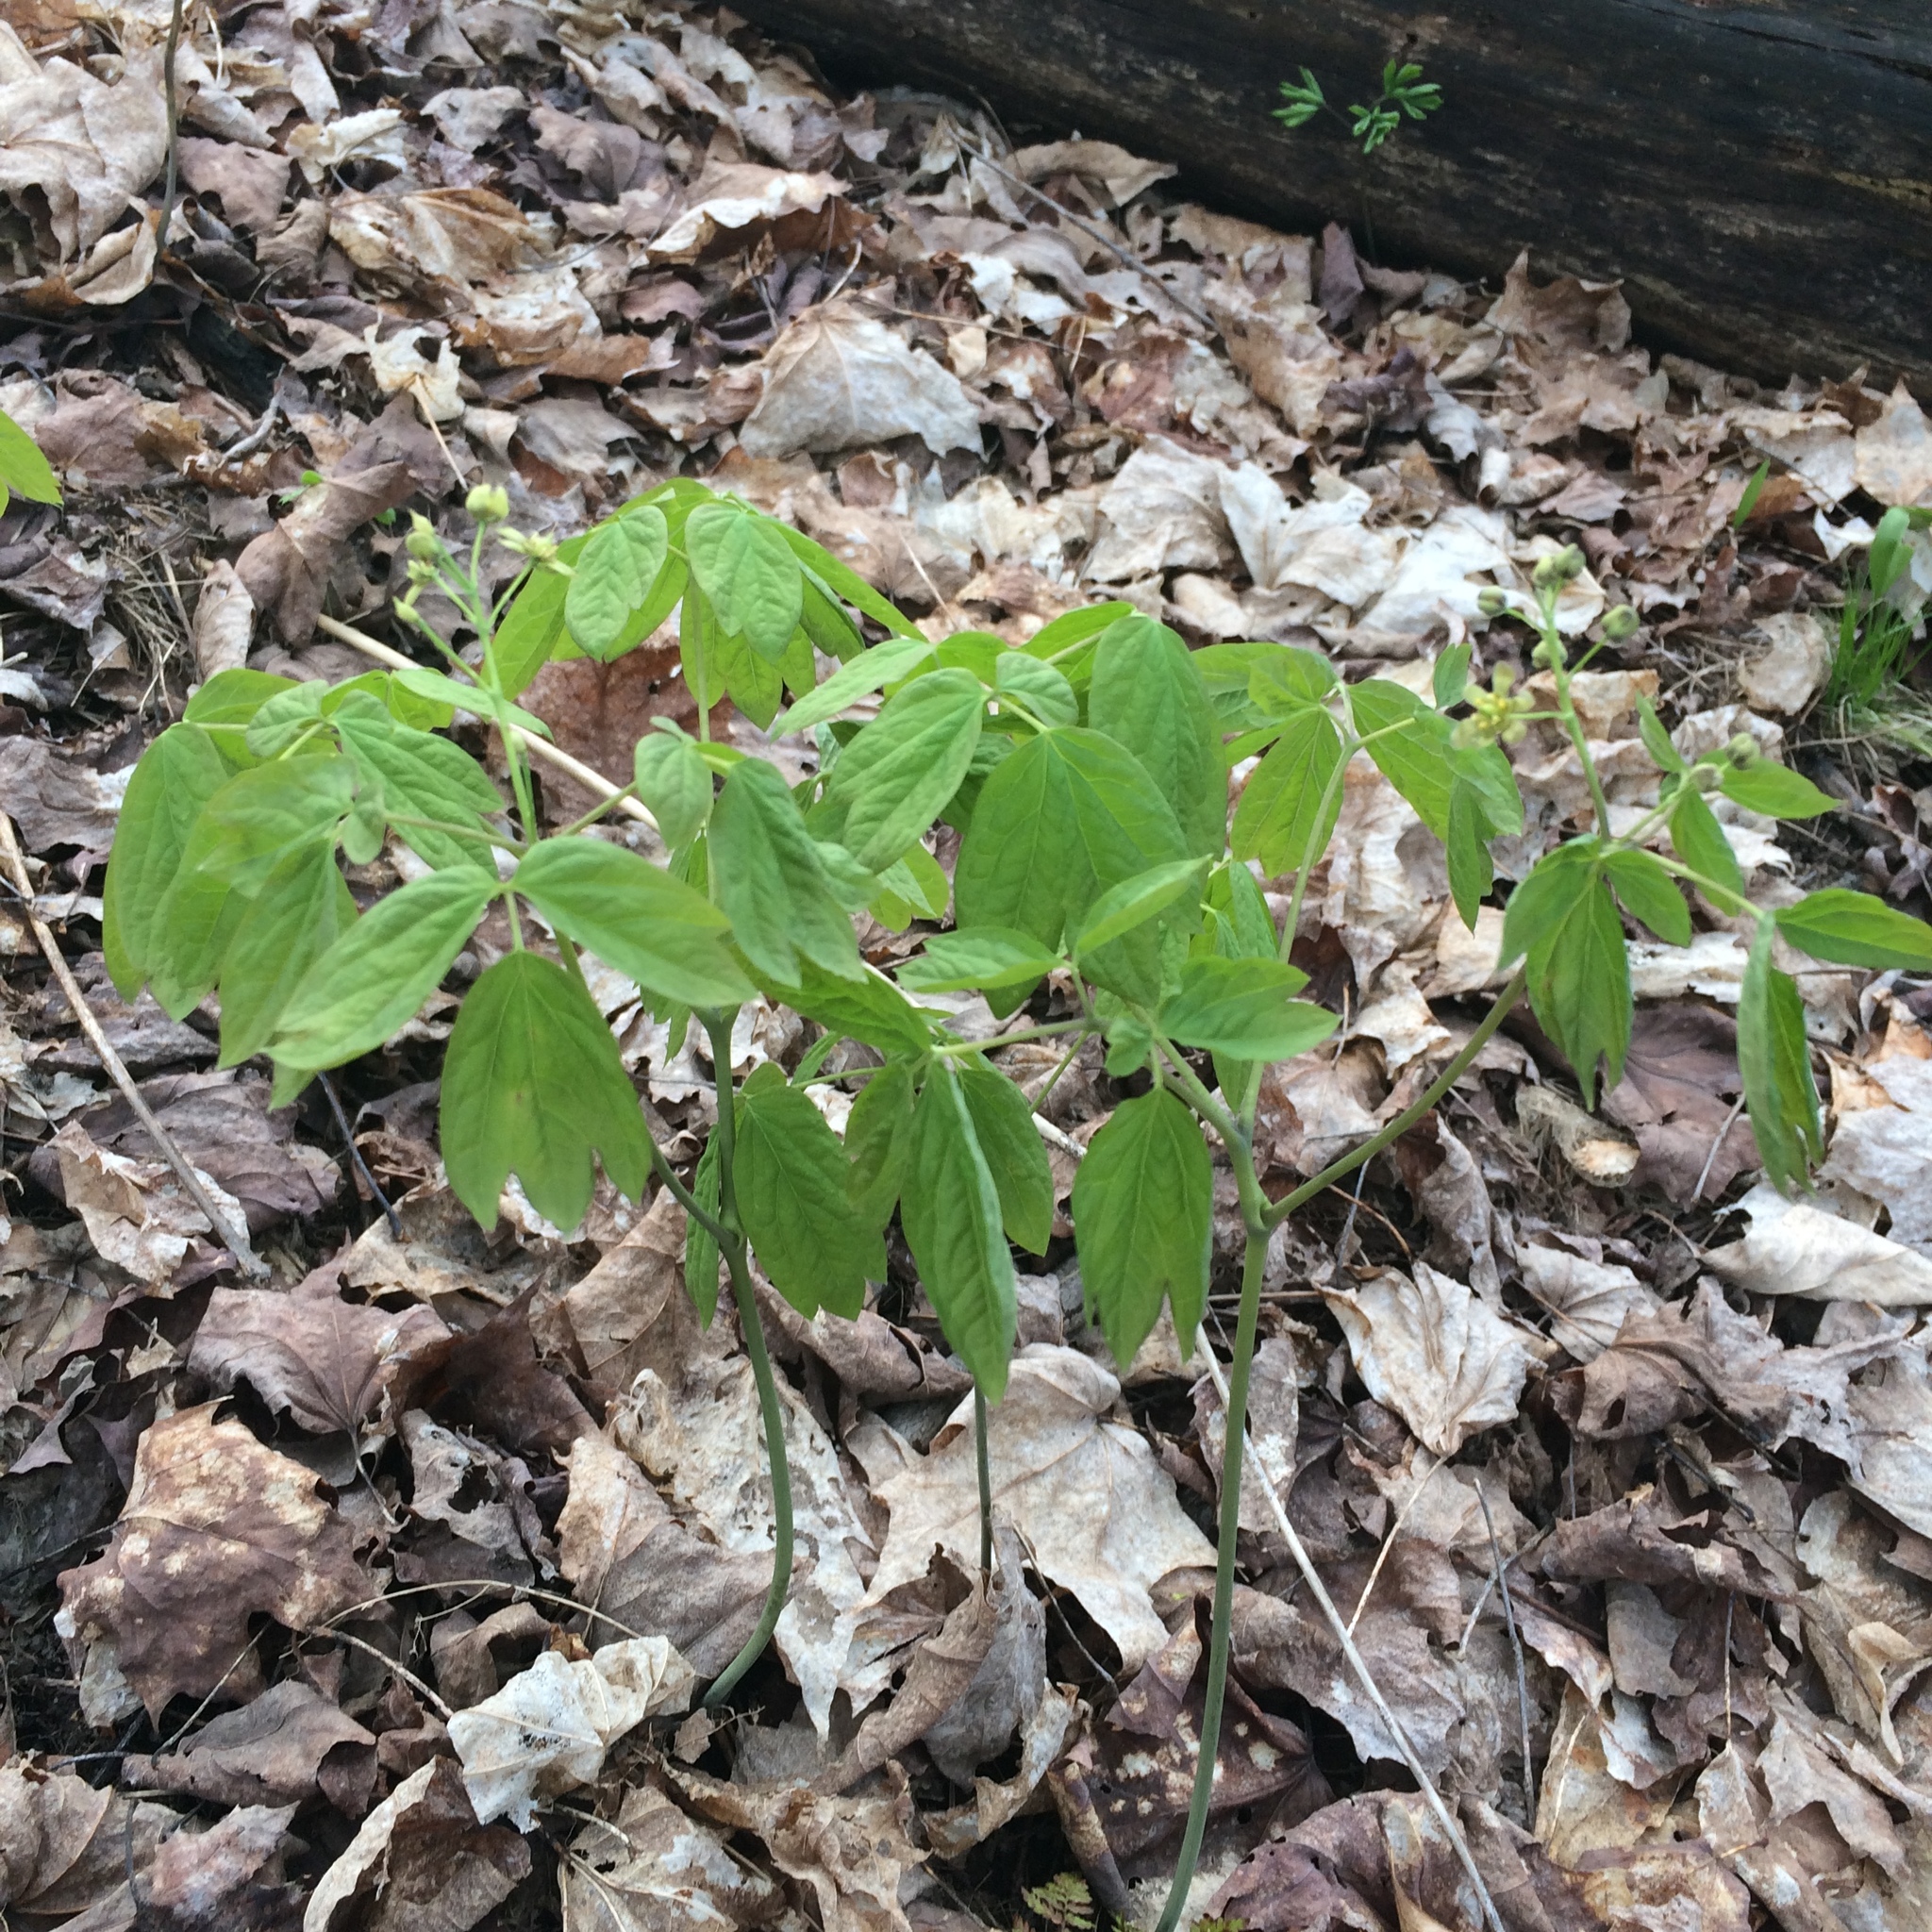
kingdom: Plantae
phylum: Tracheophyta
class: Magnoliopsida
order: Ranunculales
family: Berberidaceae
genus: Caulophyllum
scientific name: Caulophyllum
